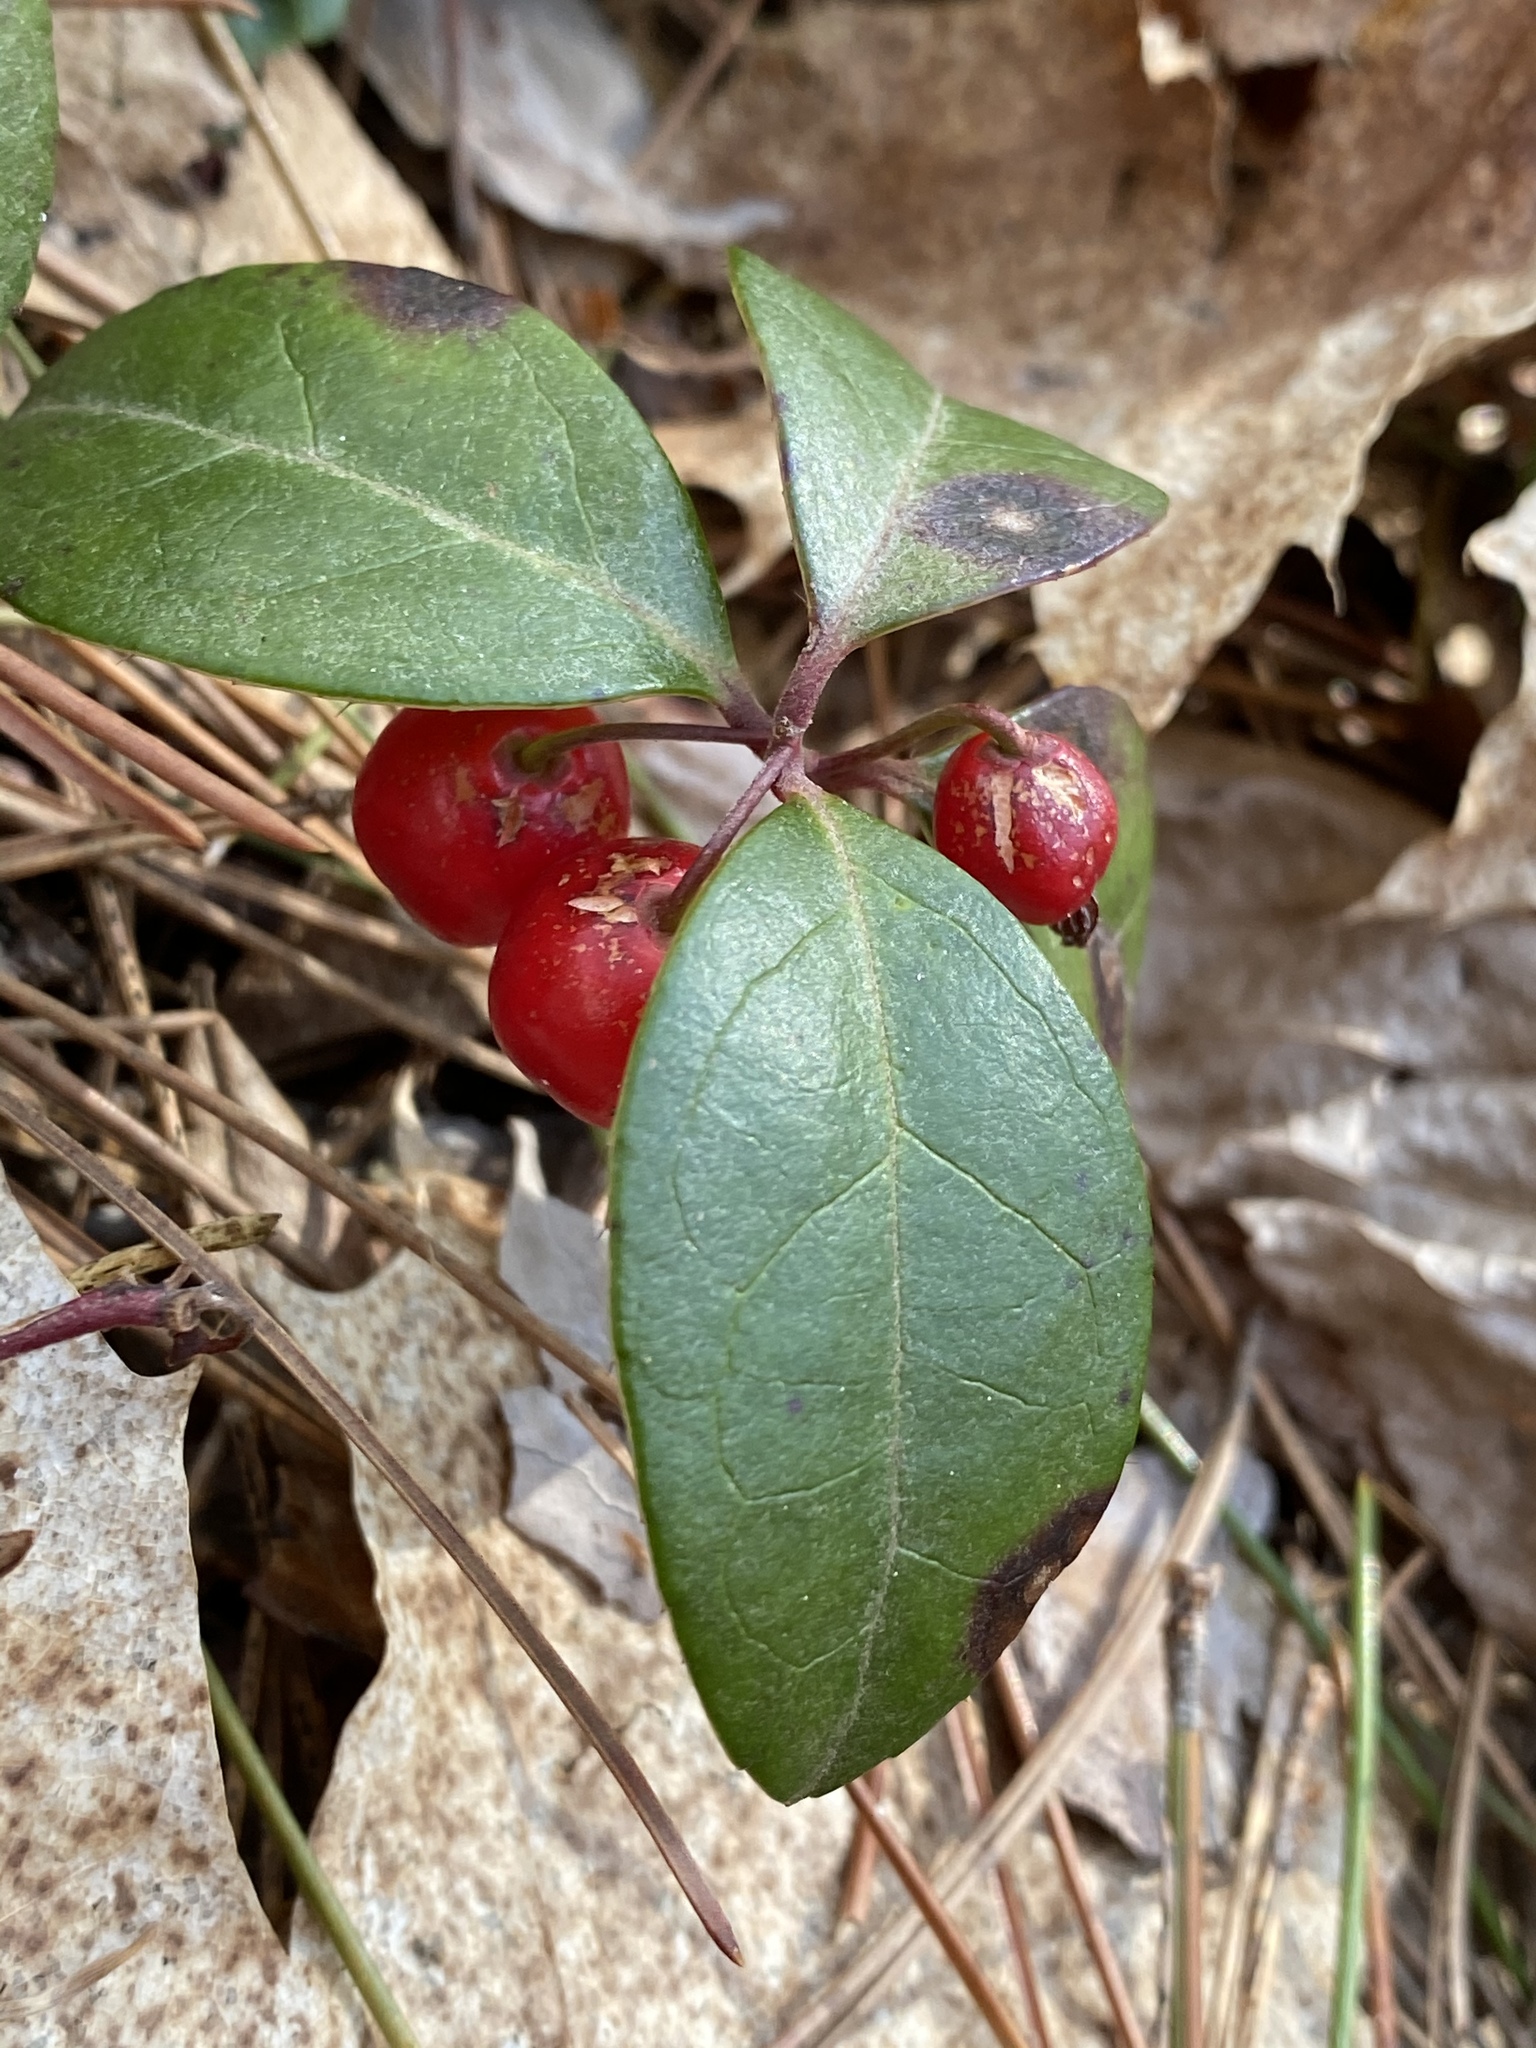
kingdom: Plantae
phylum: Tracheophyta
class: Magnoliopsida
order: Ericales
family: Ericaceae
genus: Gaultheria
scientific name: Gaultheria procumbens
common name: Checkerberry
